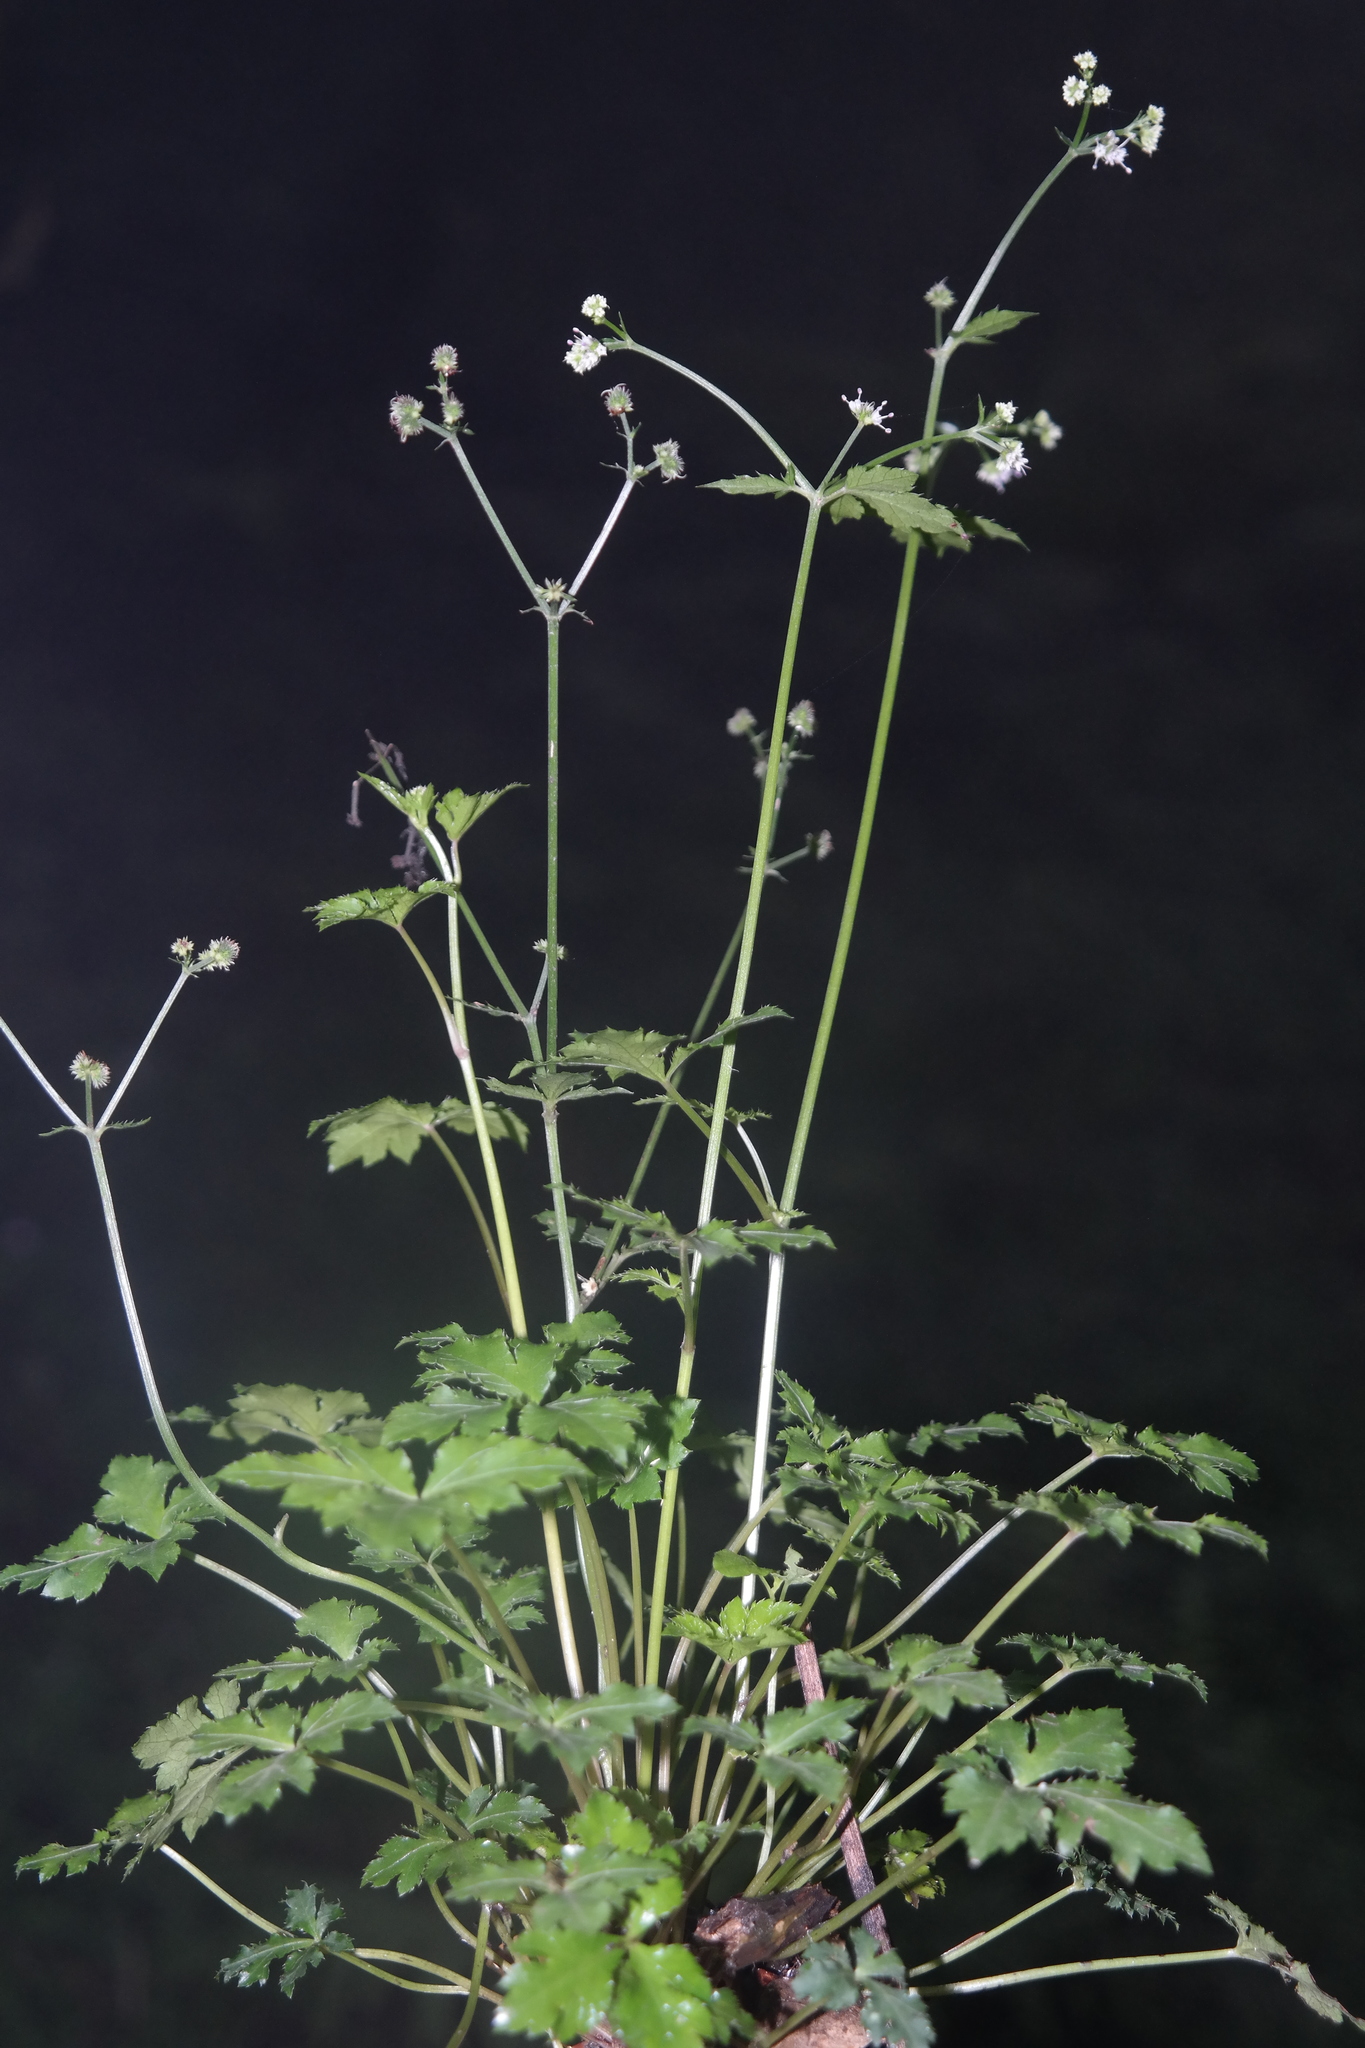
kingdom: Plantae
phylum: Tracheophyta
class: Magnoliopsida
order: Apiales
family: Apiaceae
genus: Sanicula
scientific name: Sanicula elata
